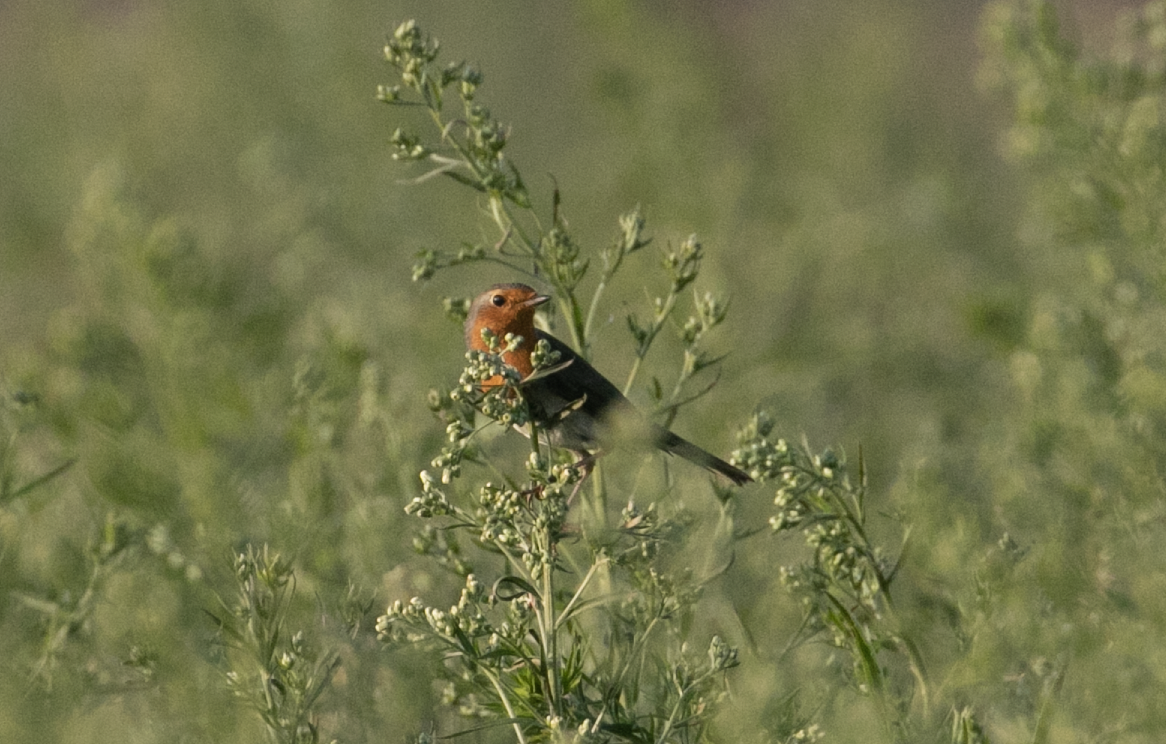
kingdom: Animalia
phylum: Chordata
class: Aves
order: Passeriformes
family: Muscicapidae
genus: Erithacus
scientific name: Erithacus rubecula
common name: European robin
